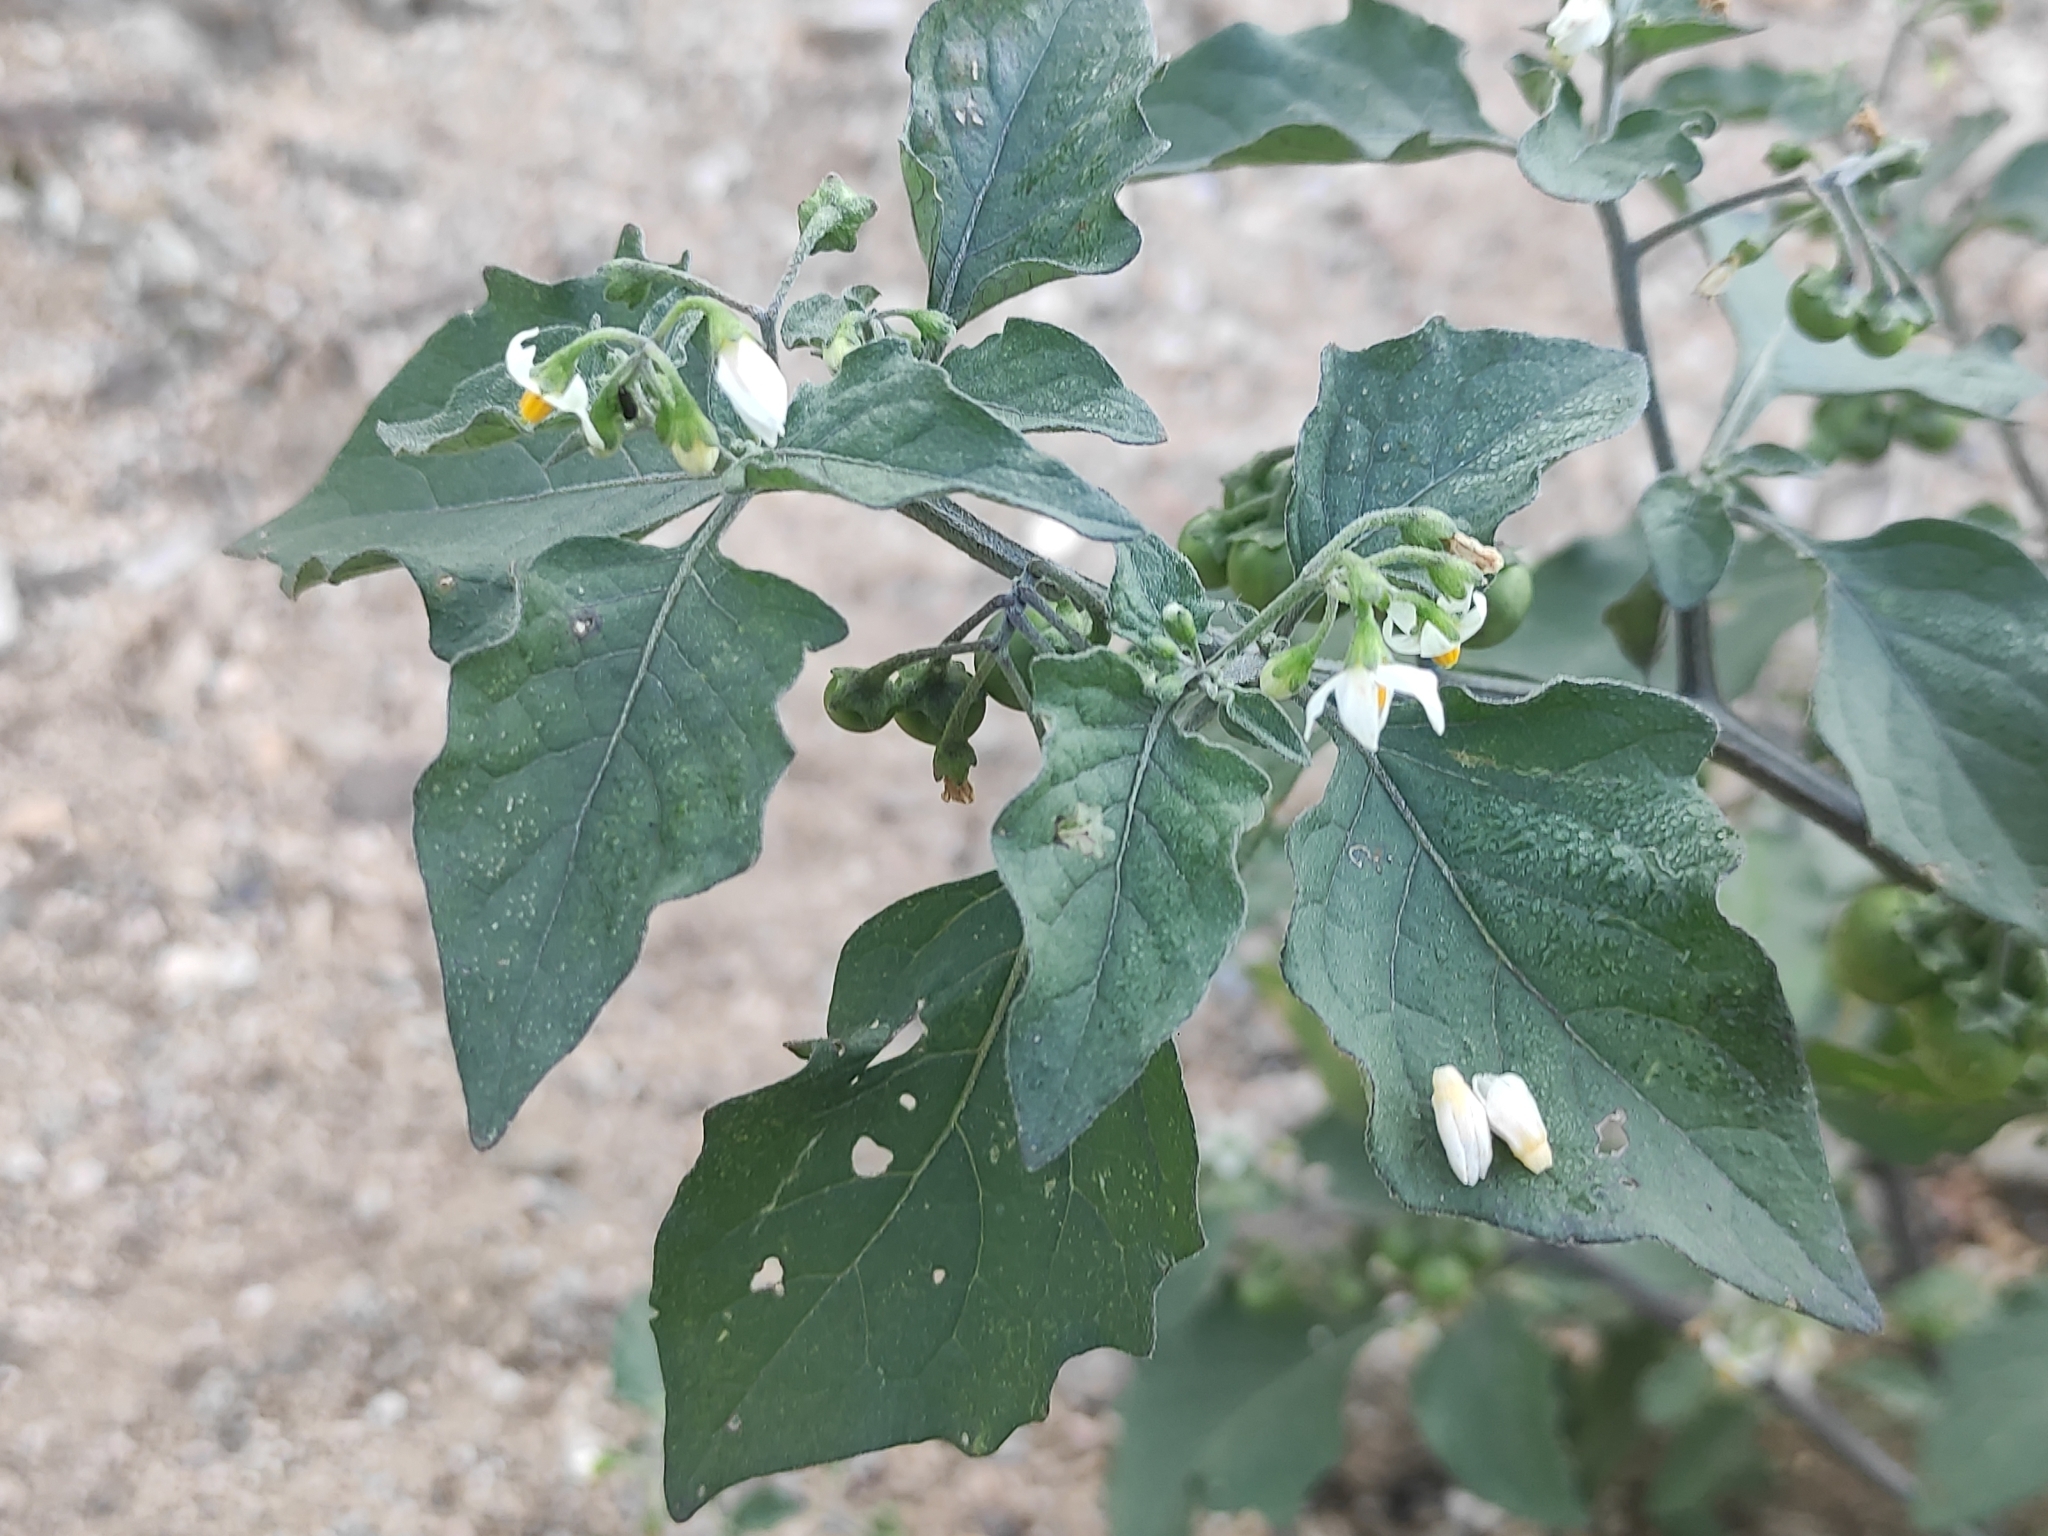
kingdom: Plantae
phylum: Tracheophyta
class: Magnoliopsida
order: Solanales
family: Solanaceae
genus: Solanum
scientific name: Solanum nigrum
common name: Black nightshade
